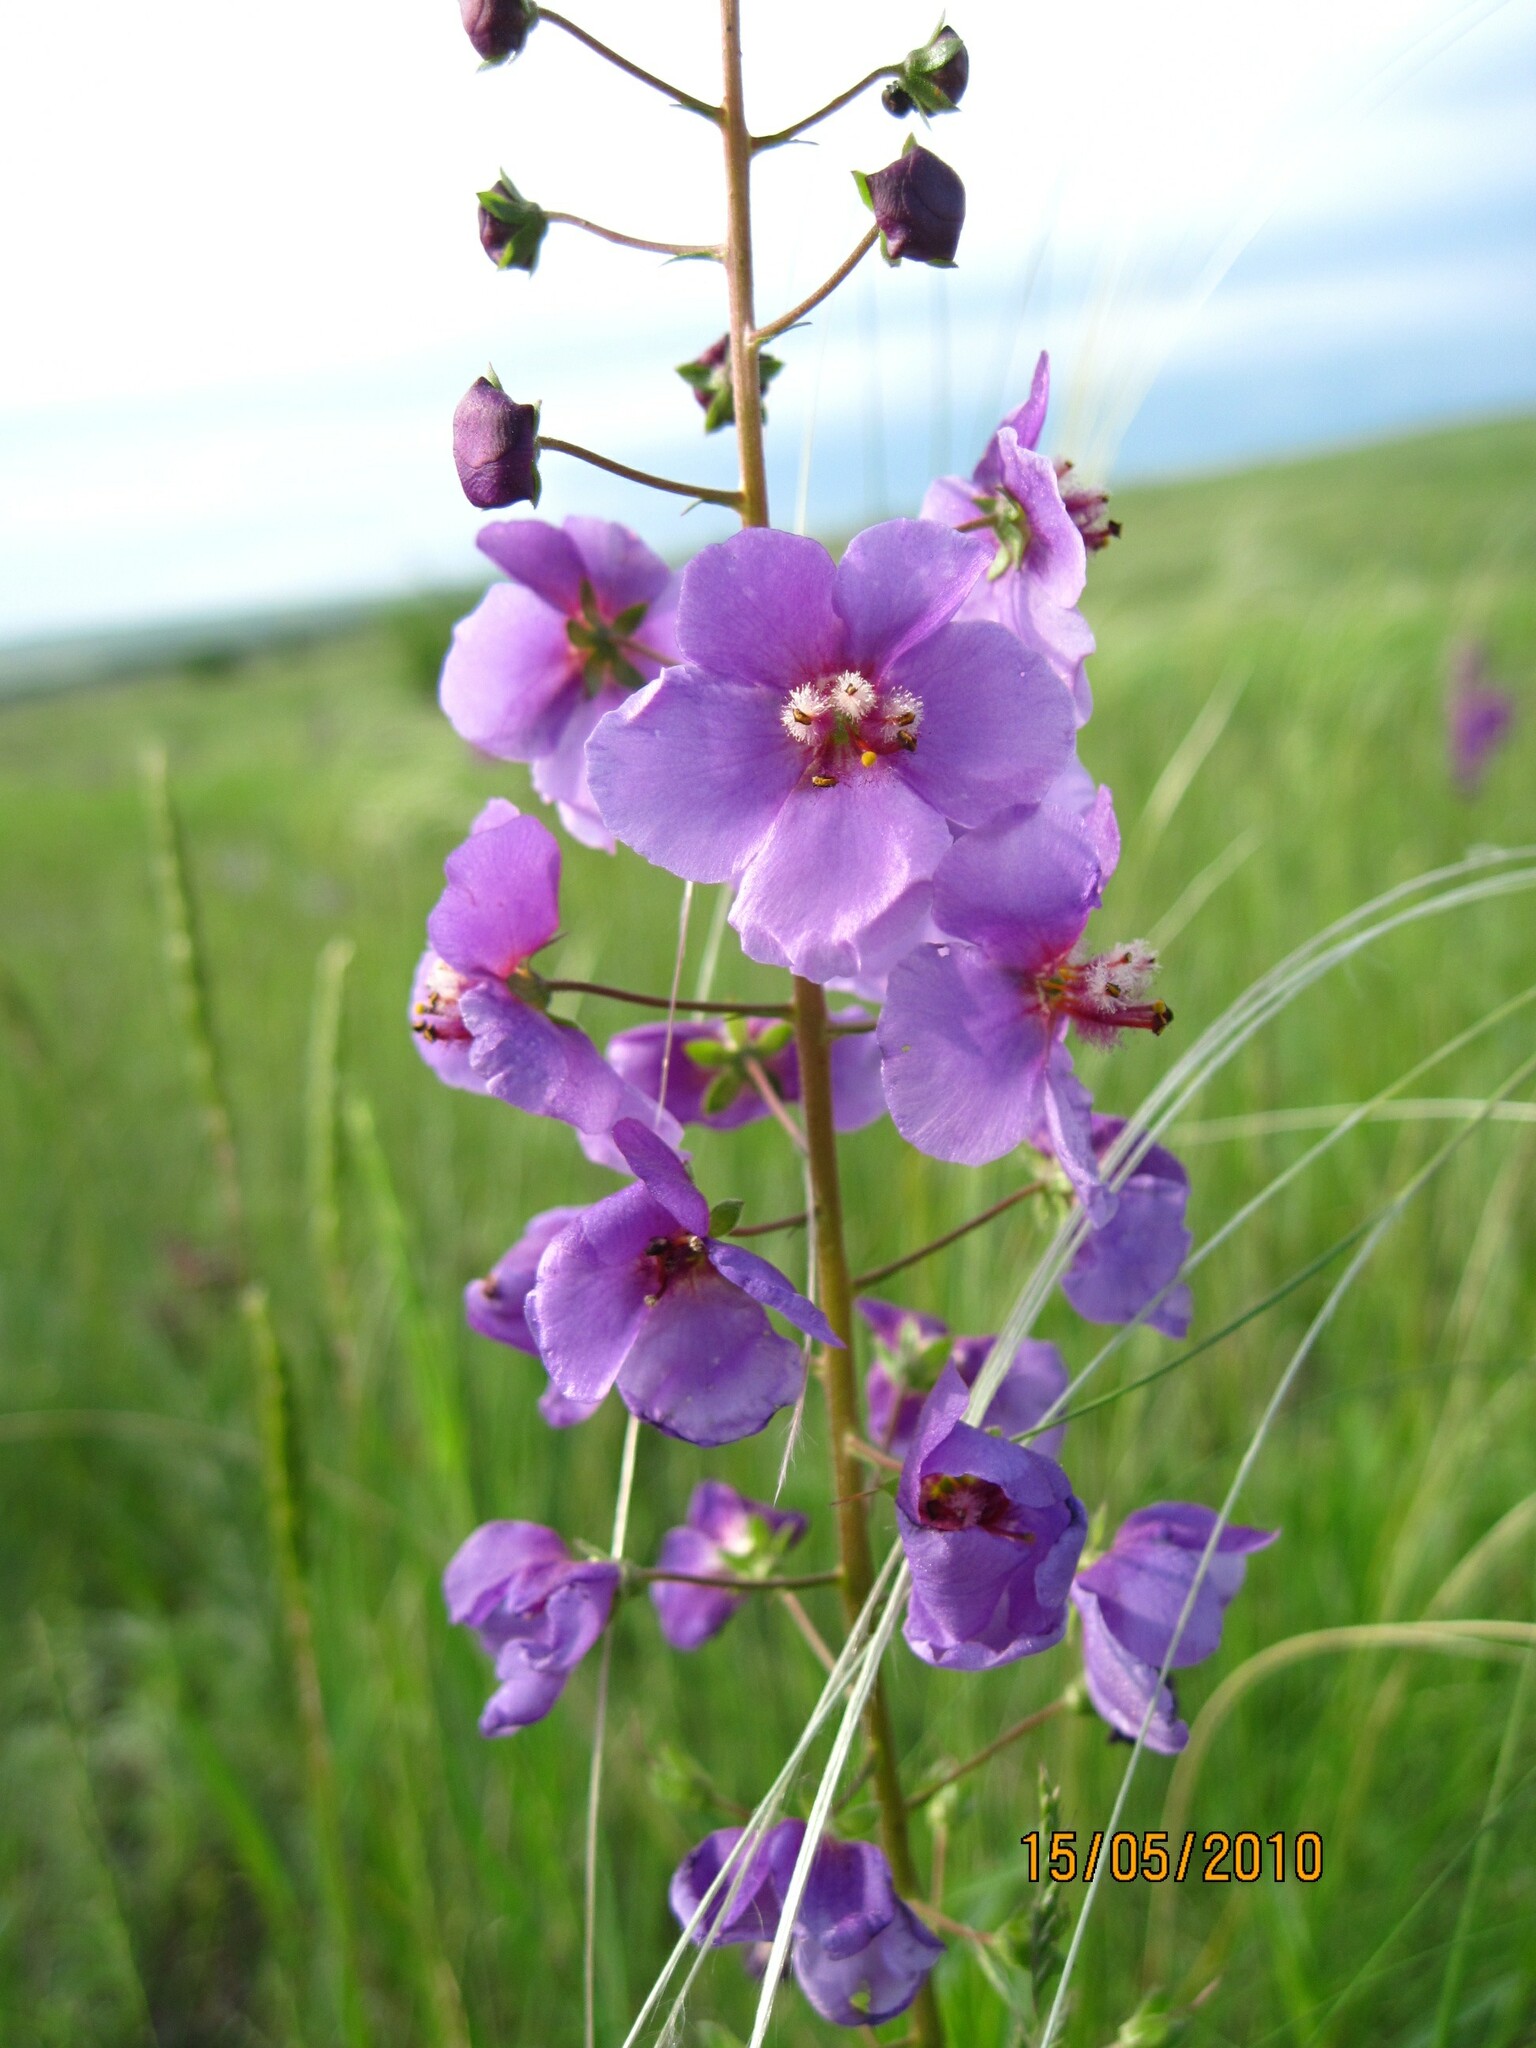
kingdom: Plantae
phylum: Tracheophyta
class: Magnoliopsida
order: Lamiales
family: Scrophulariaceae
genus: Verbascum
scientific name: Verbascum phoeniceum
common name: Purple mullein
